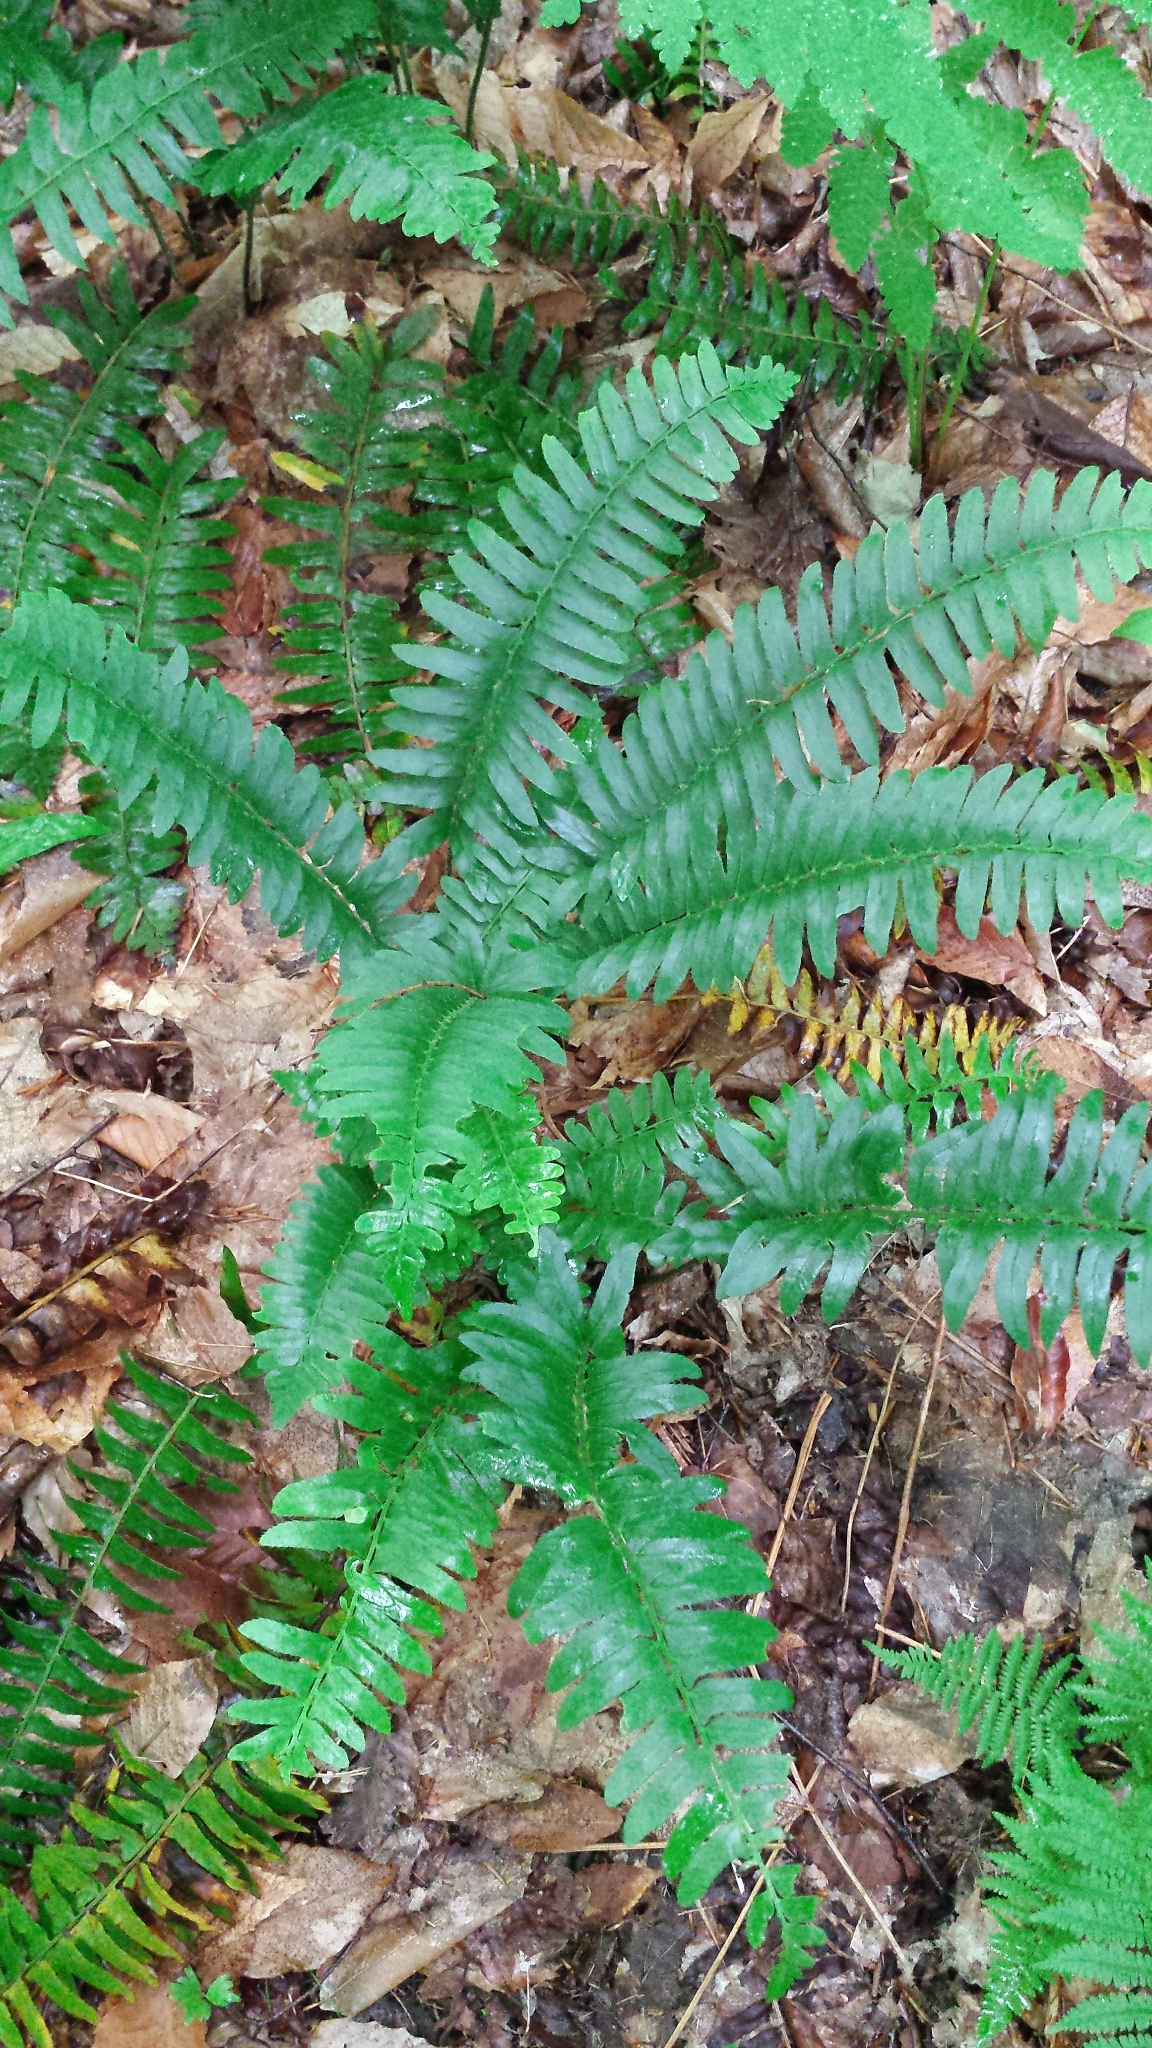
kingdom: Plantae
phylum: Tracheophyta
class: Polypodiopsida
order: Polypodiales
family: Dryopteridaceae
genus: Polystichum
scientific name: Polystichum acrostichoides
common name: Christmas fern
